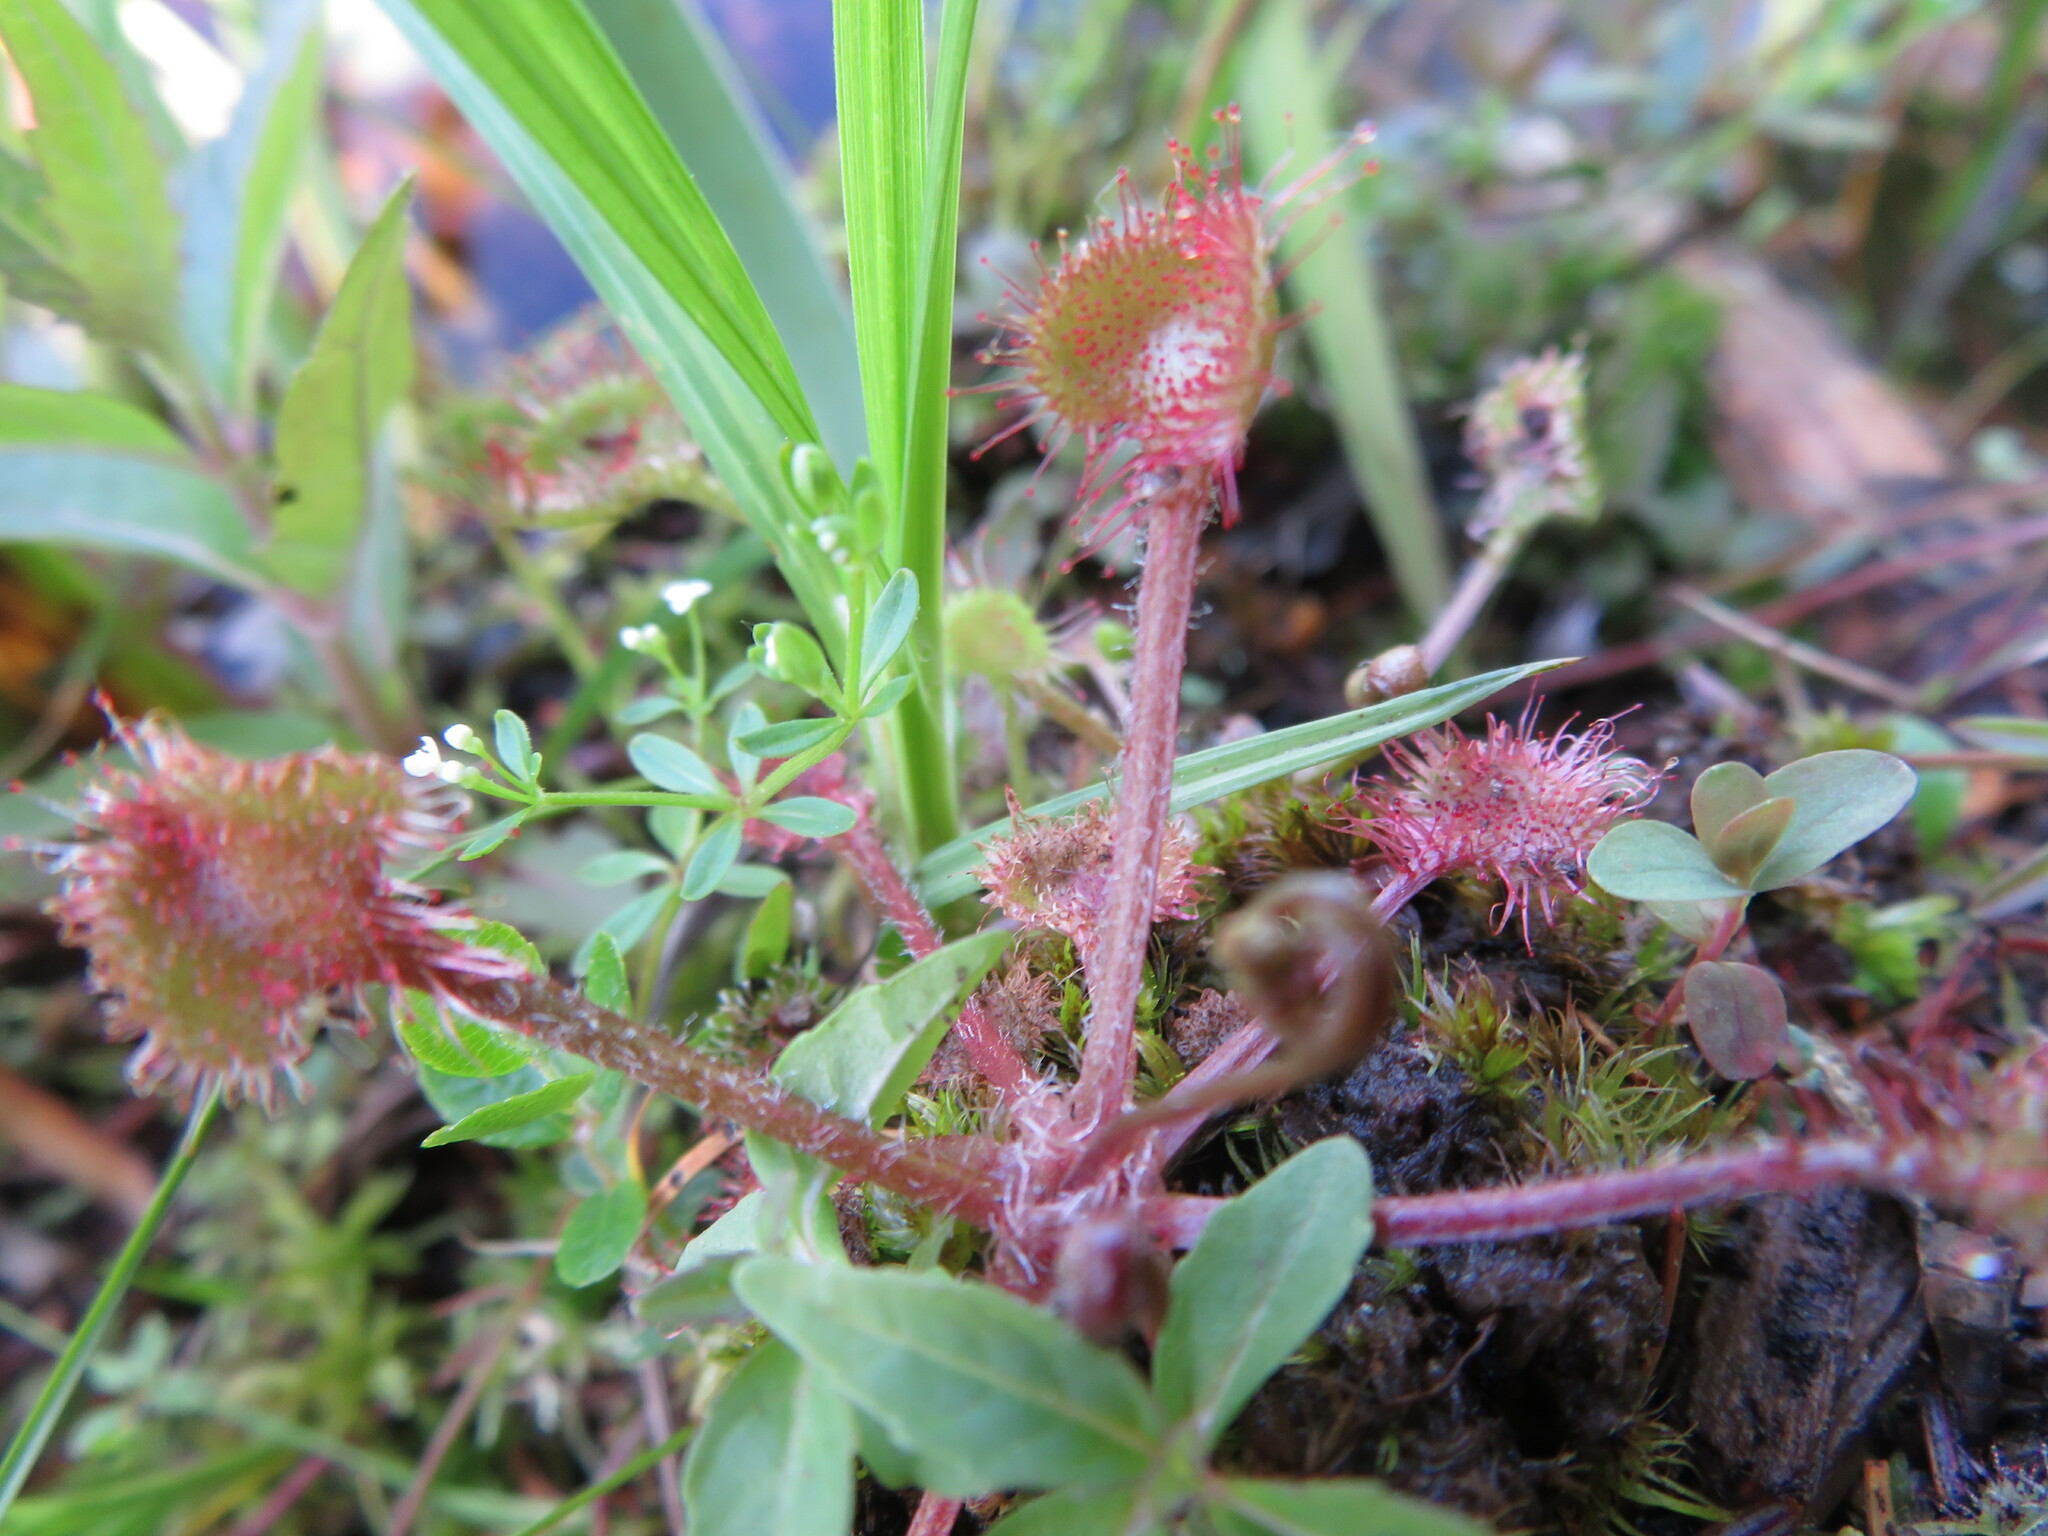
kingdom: Plantae
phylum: Tracheophyta
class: Magnoliopsida
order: Caryophyllales
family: Droseraceae
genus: Drosera
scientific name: Drosera rotundifolia
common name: Round-leaved sundew
